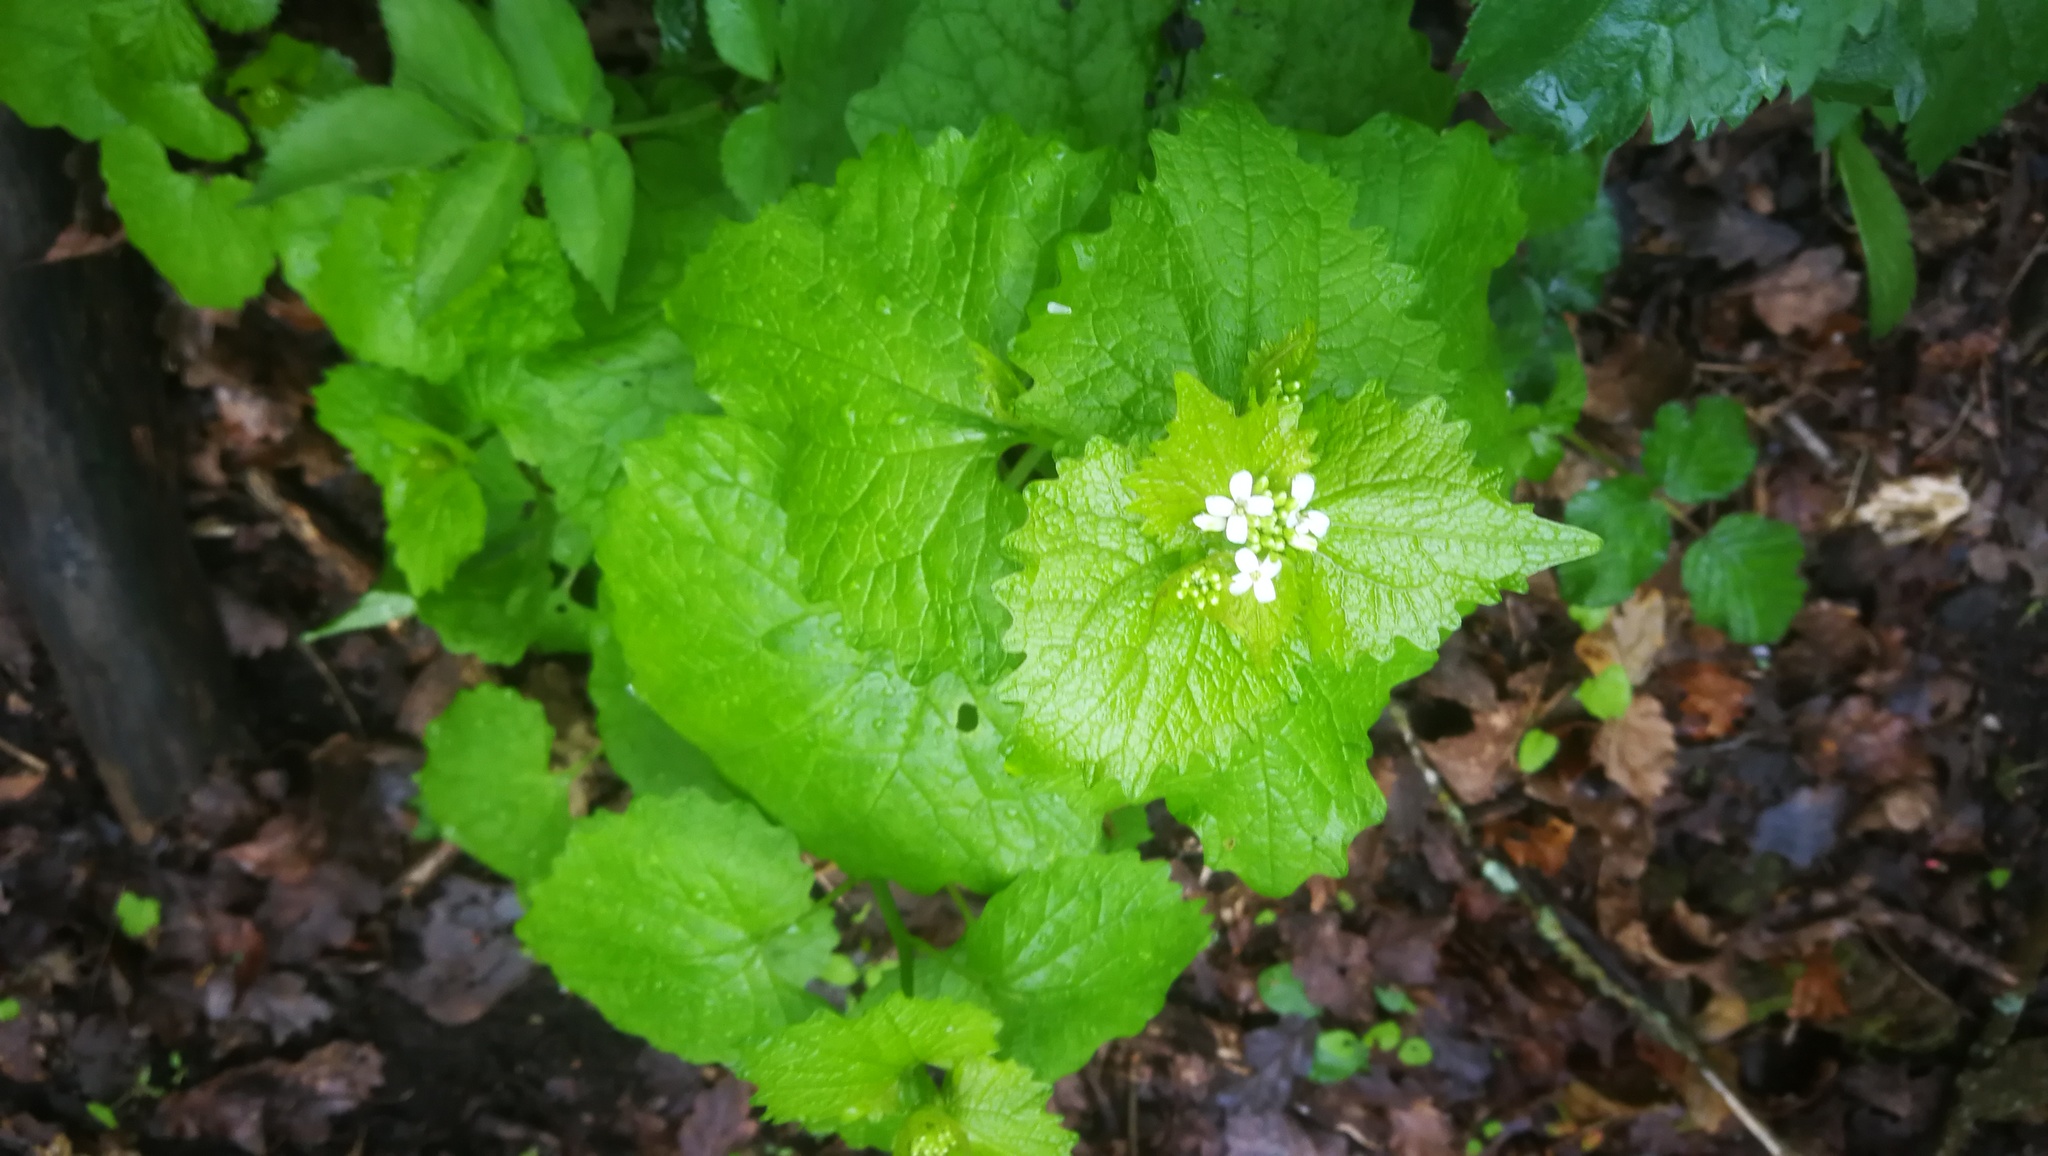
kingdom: Plantae
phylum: Tracheophyta
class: Magnoliopsida
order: Brassicales
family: Brassicaceae
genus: Alliaria
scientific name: Alliaria petiolata
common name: Garlic mustard
